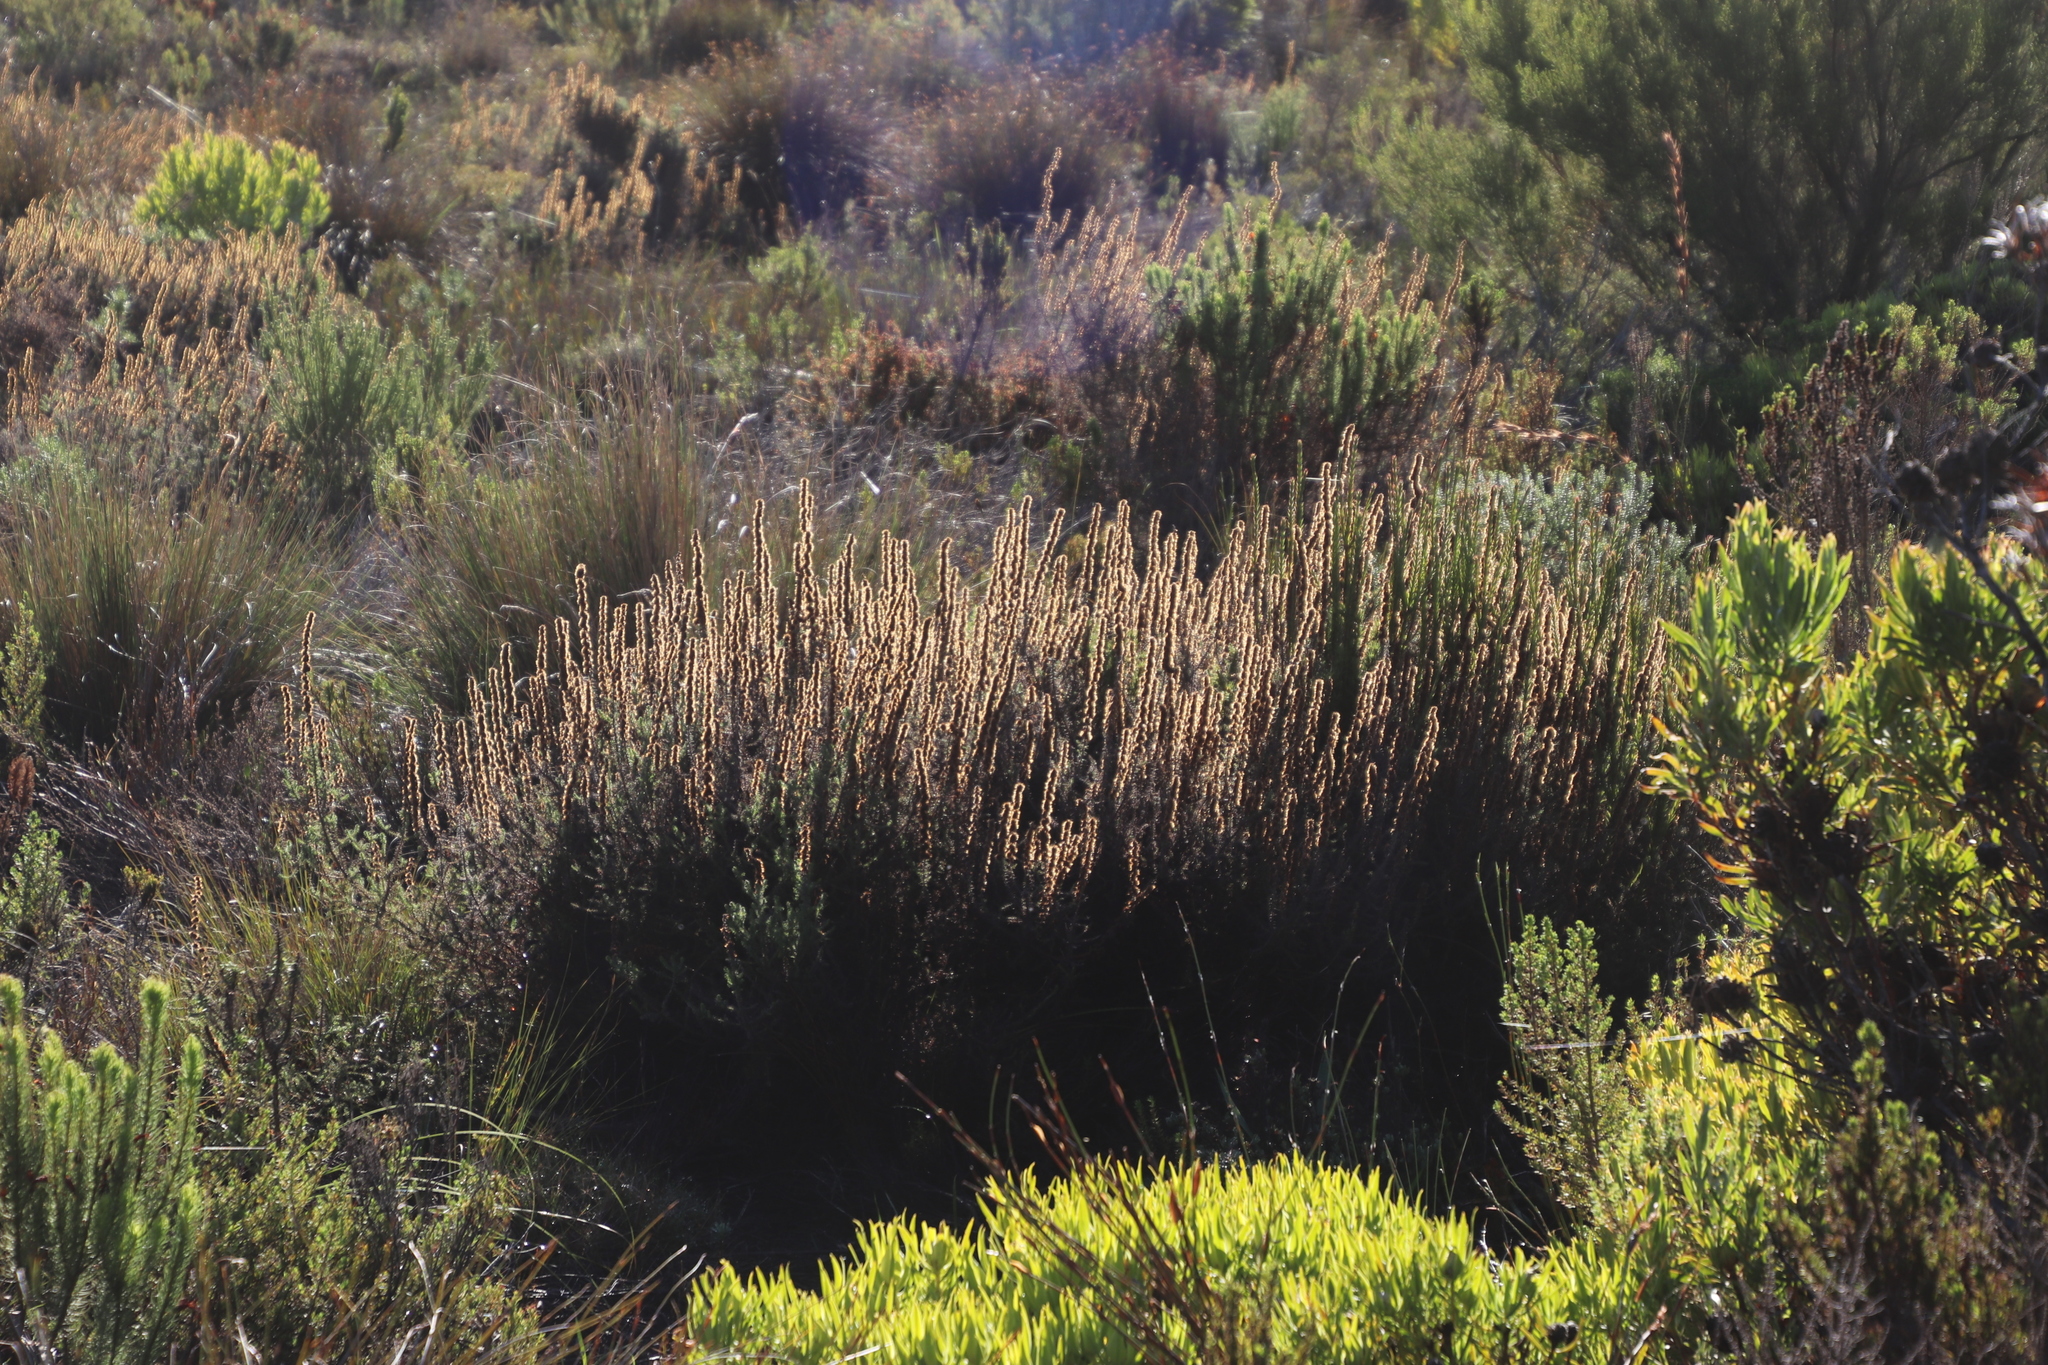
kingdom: Plantae
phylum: Tracheophyta
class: Magnoliopsida
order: Asterales
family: Asteraceae
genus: Seriphium
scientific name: Seriphium cinereum
